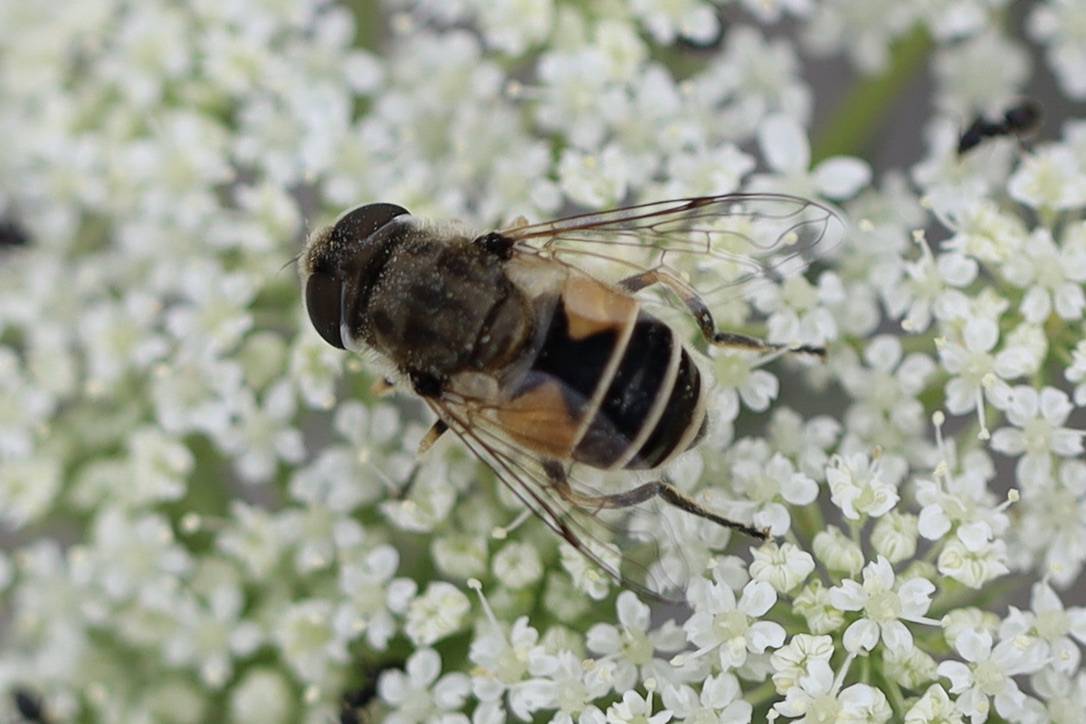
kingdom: Animalia
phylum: Arthropoda
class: Insecta
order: Diptera
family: Syrphidae
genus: Eristalis
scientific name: Eristalis arbustorum
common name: Hover fly
